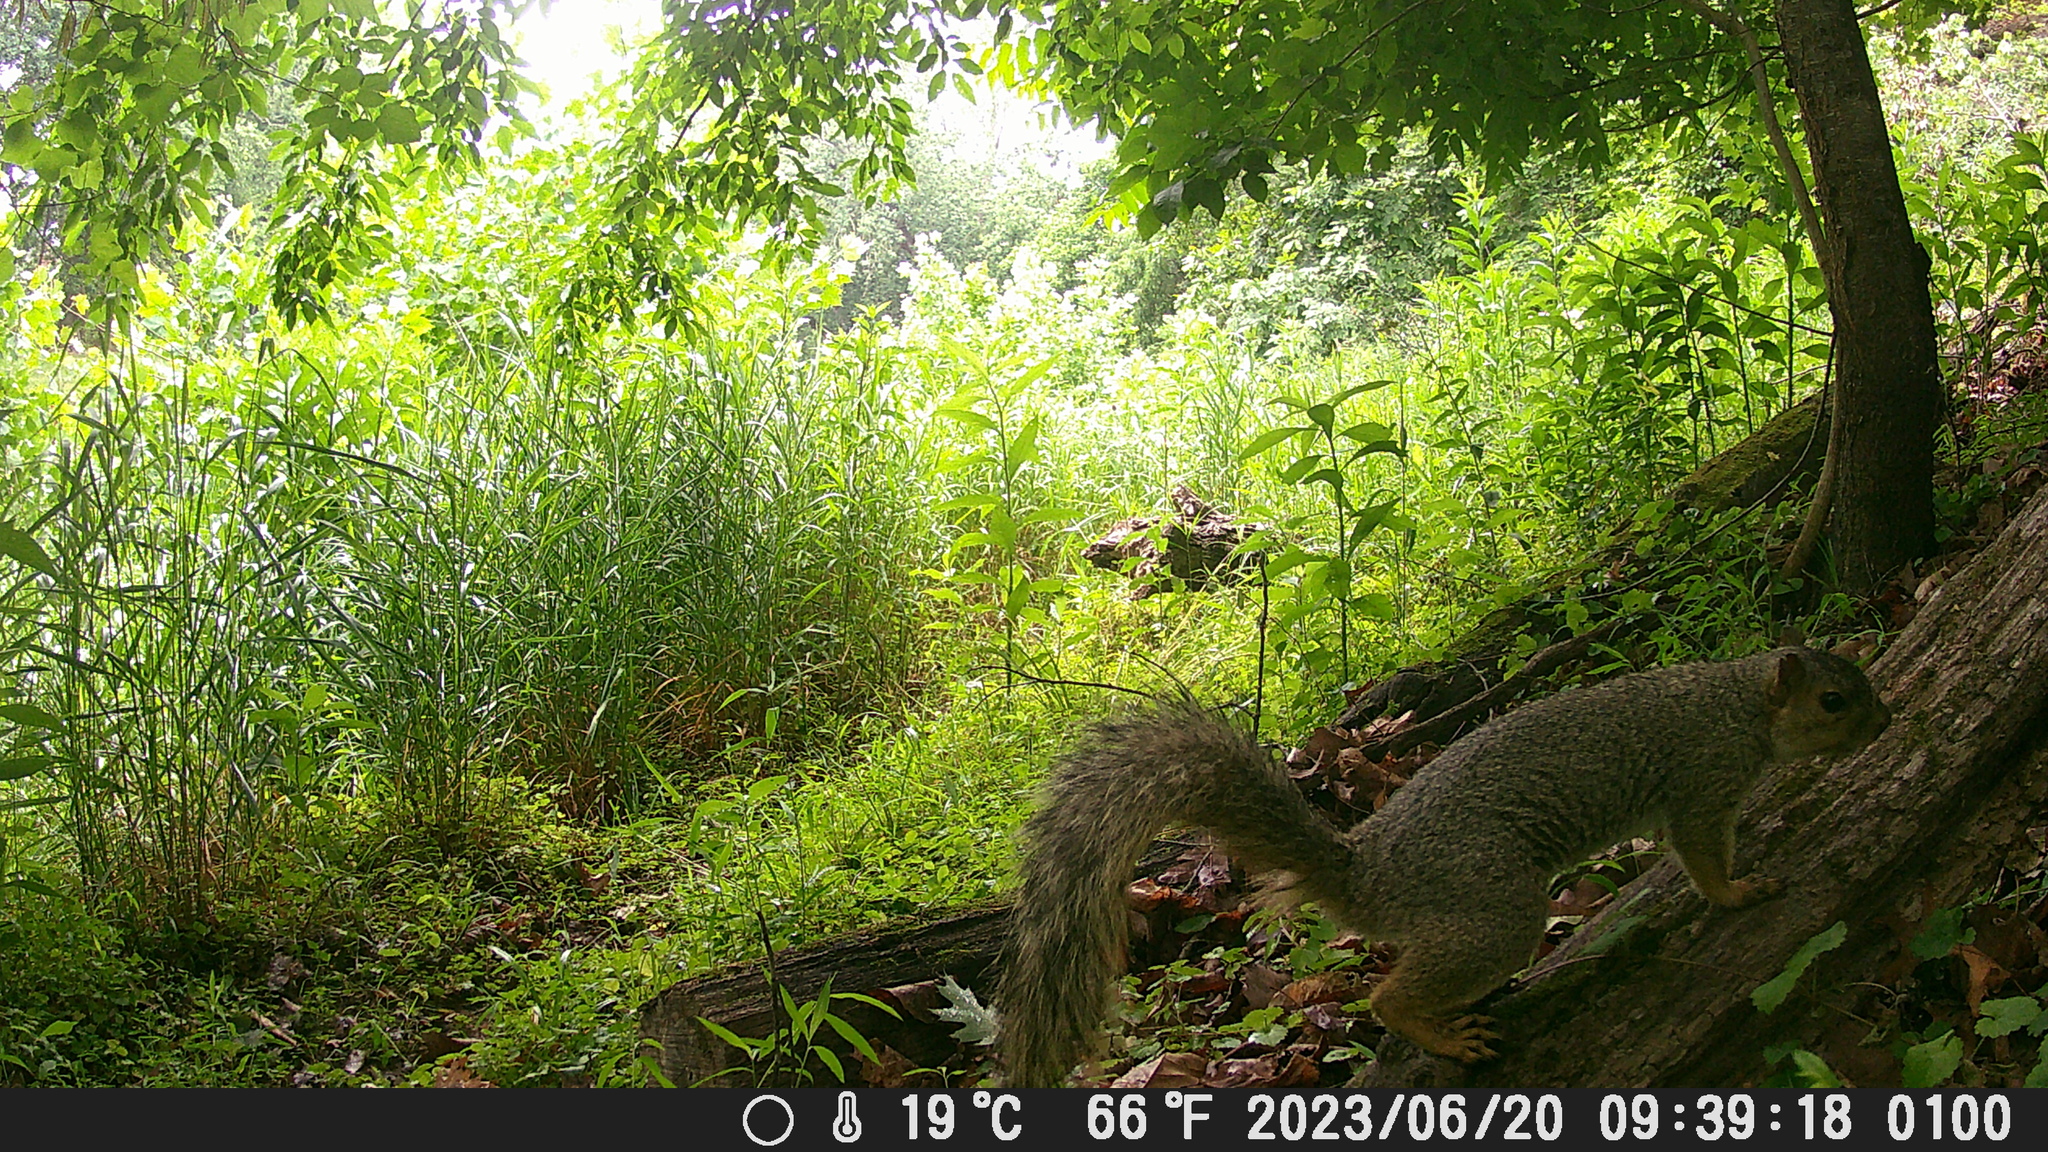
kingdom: Animalia
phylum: Chordata
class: Mammalia
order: Rodentia
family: Sciuridae
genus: Sciurus
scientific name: Sciurus niger
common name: Fox squirrel
